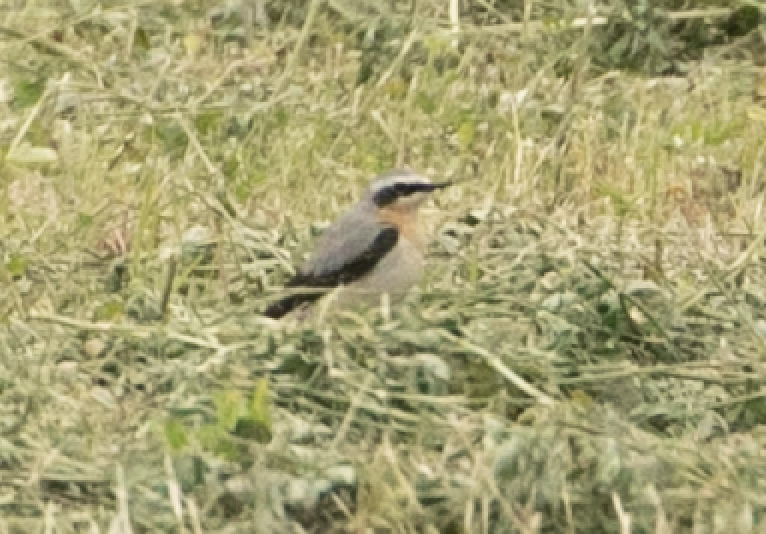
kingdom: Animalia
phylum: Chordata
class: Aves
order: Passeriformes
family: Muscicapidae
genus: Oenanthe
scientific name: Oenanthe oenanthe
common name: Northern wheatear
